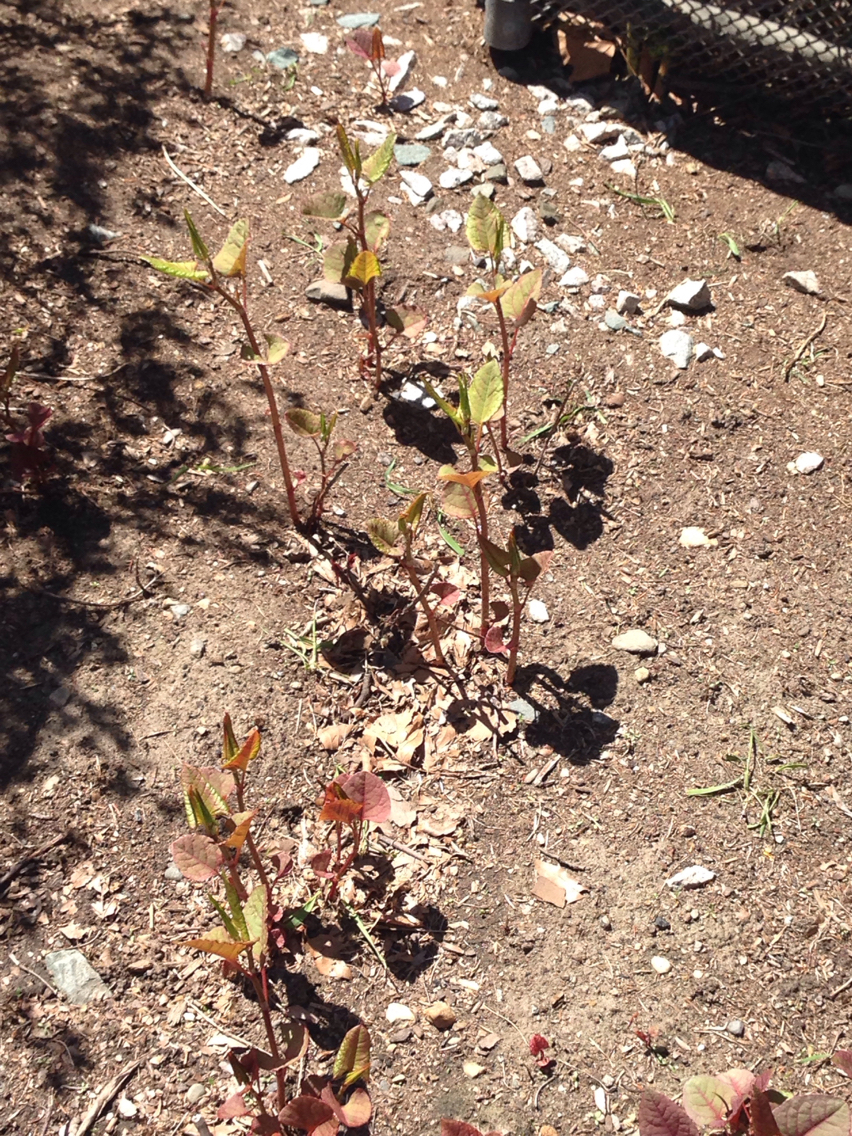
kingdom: Plantae
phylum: Tracheophyta
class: Magnoliopsida
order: Caryophyllales
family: Polygonaceae
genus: Reynoutria
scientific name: Reynoutria japonica
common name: Japanese knotweed
